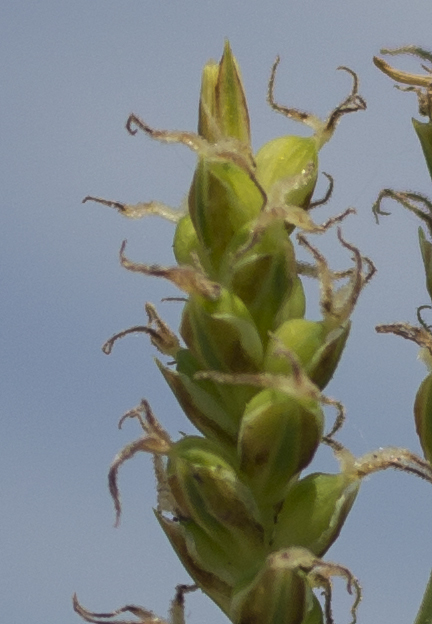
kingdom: Plantae
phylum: Tracheophyta
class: Liliopsida
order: Poales
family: Cyperaceae
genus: Carex
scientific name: Carex meadii
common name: Mead's sedge
